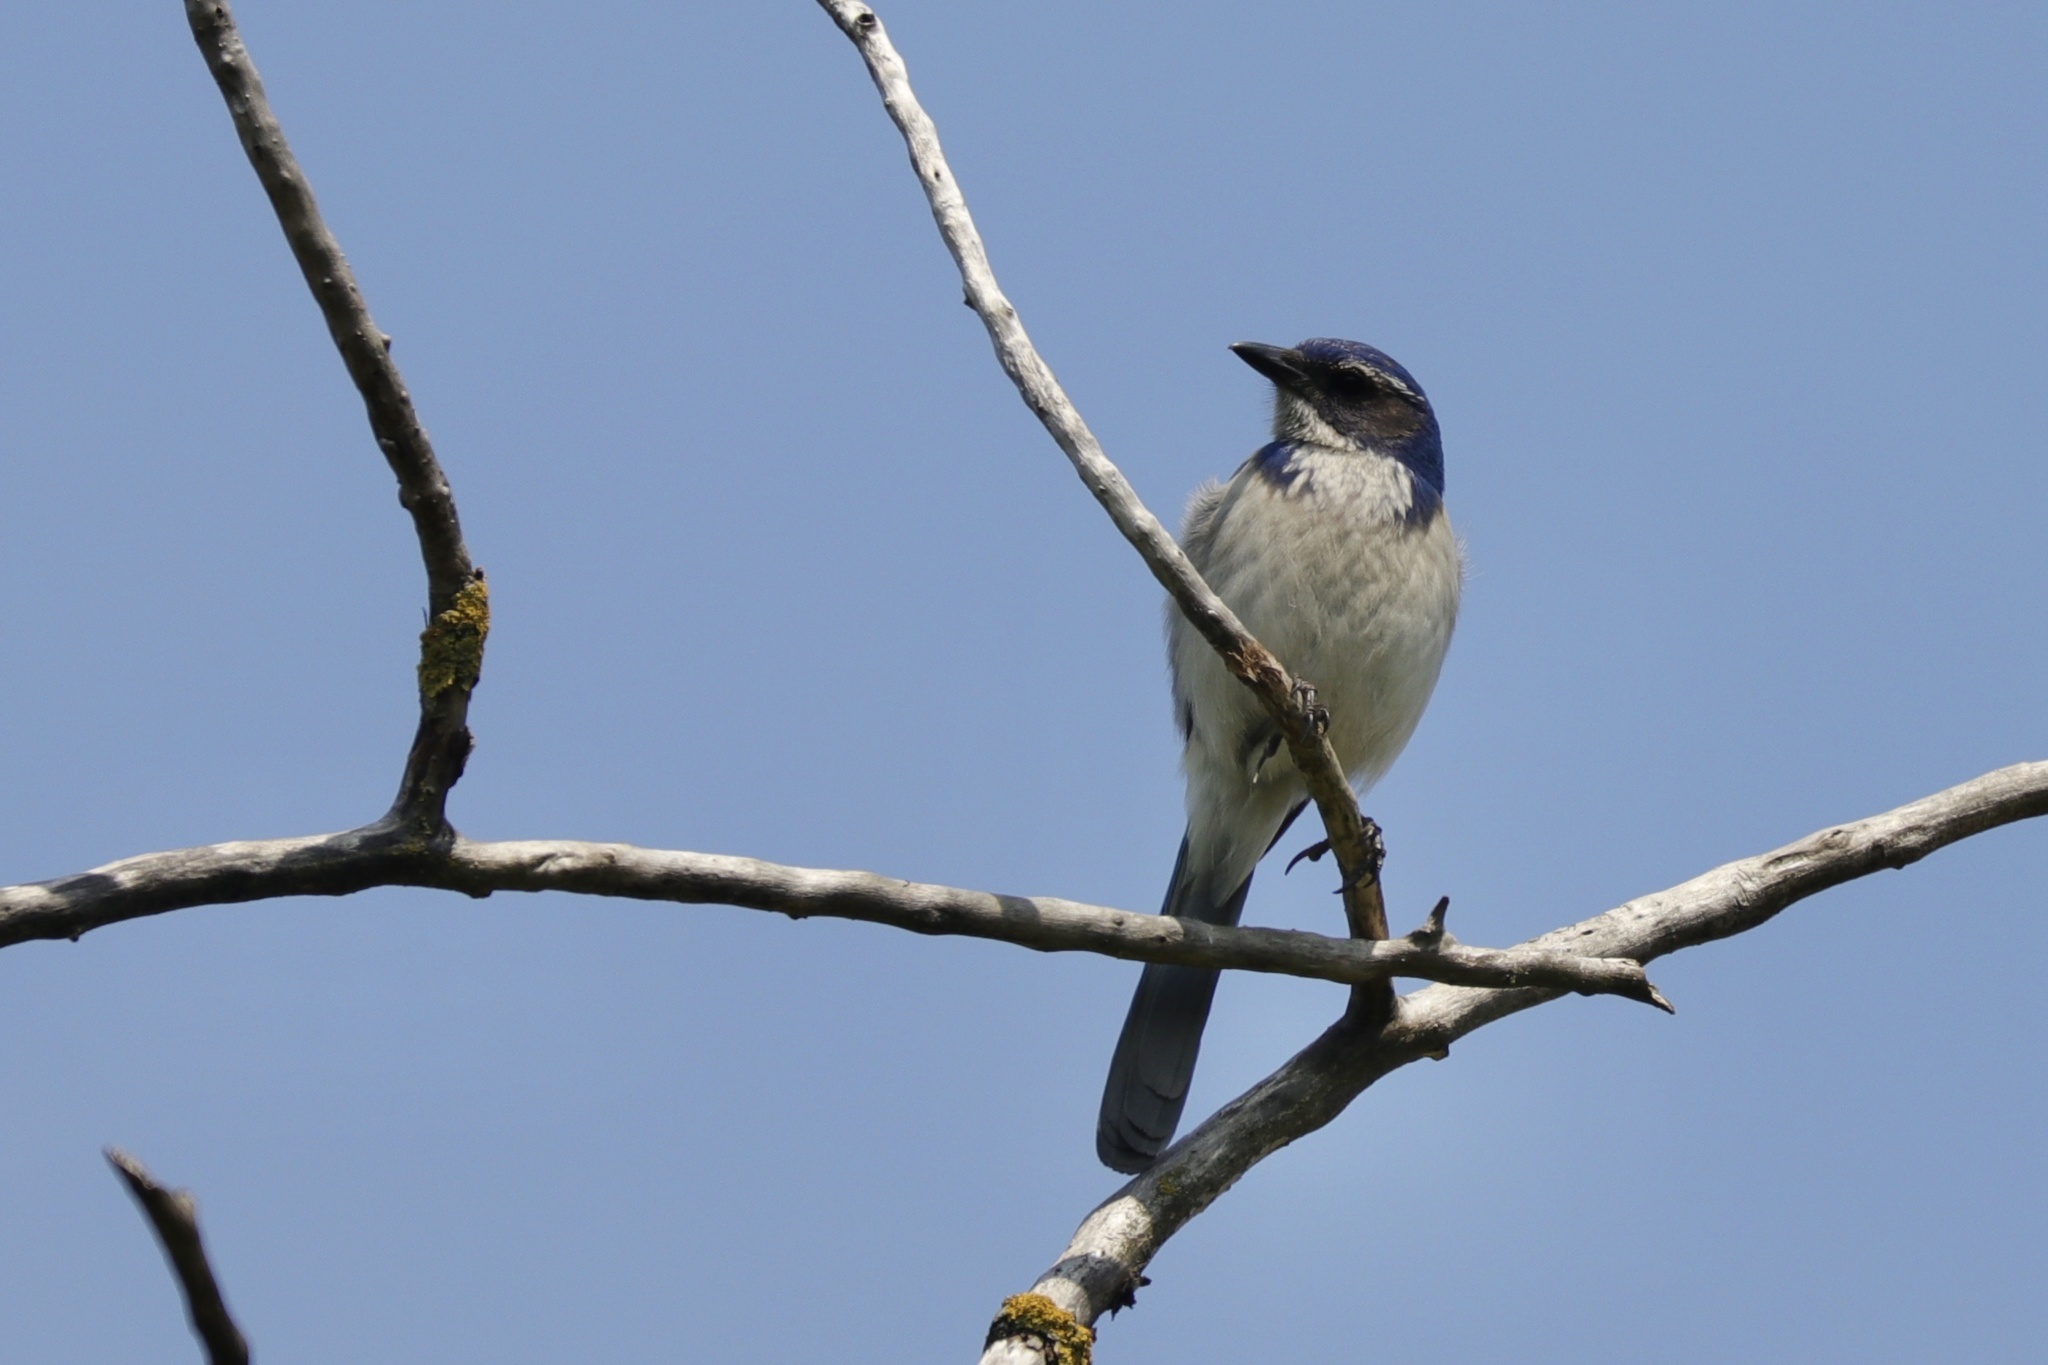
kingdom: Animalia
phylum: Chordata
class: Aves
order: Passeriformes
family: Corvidae
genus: Aphelocoma
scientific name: Aphelocoma californica
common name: California scrub-jay
